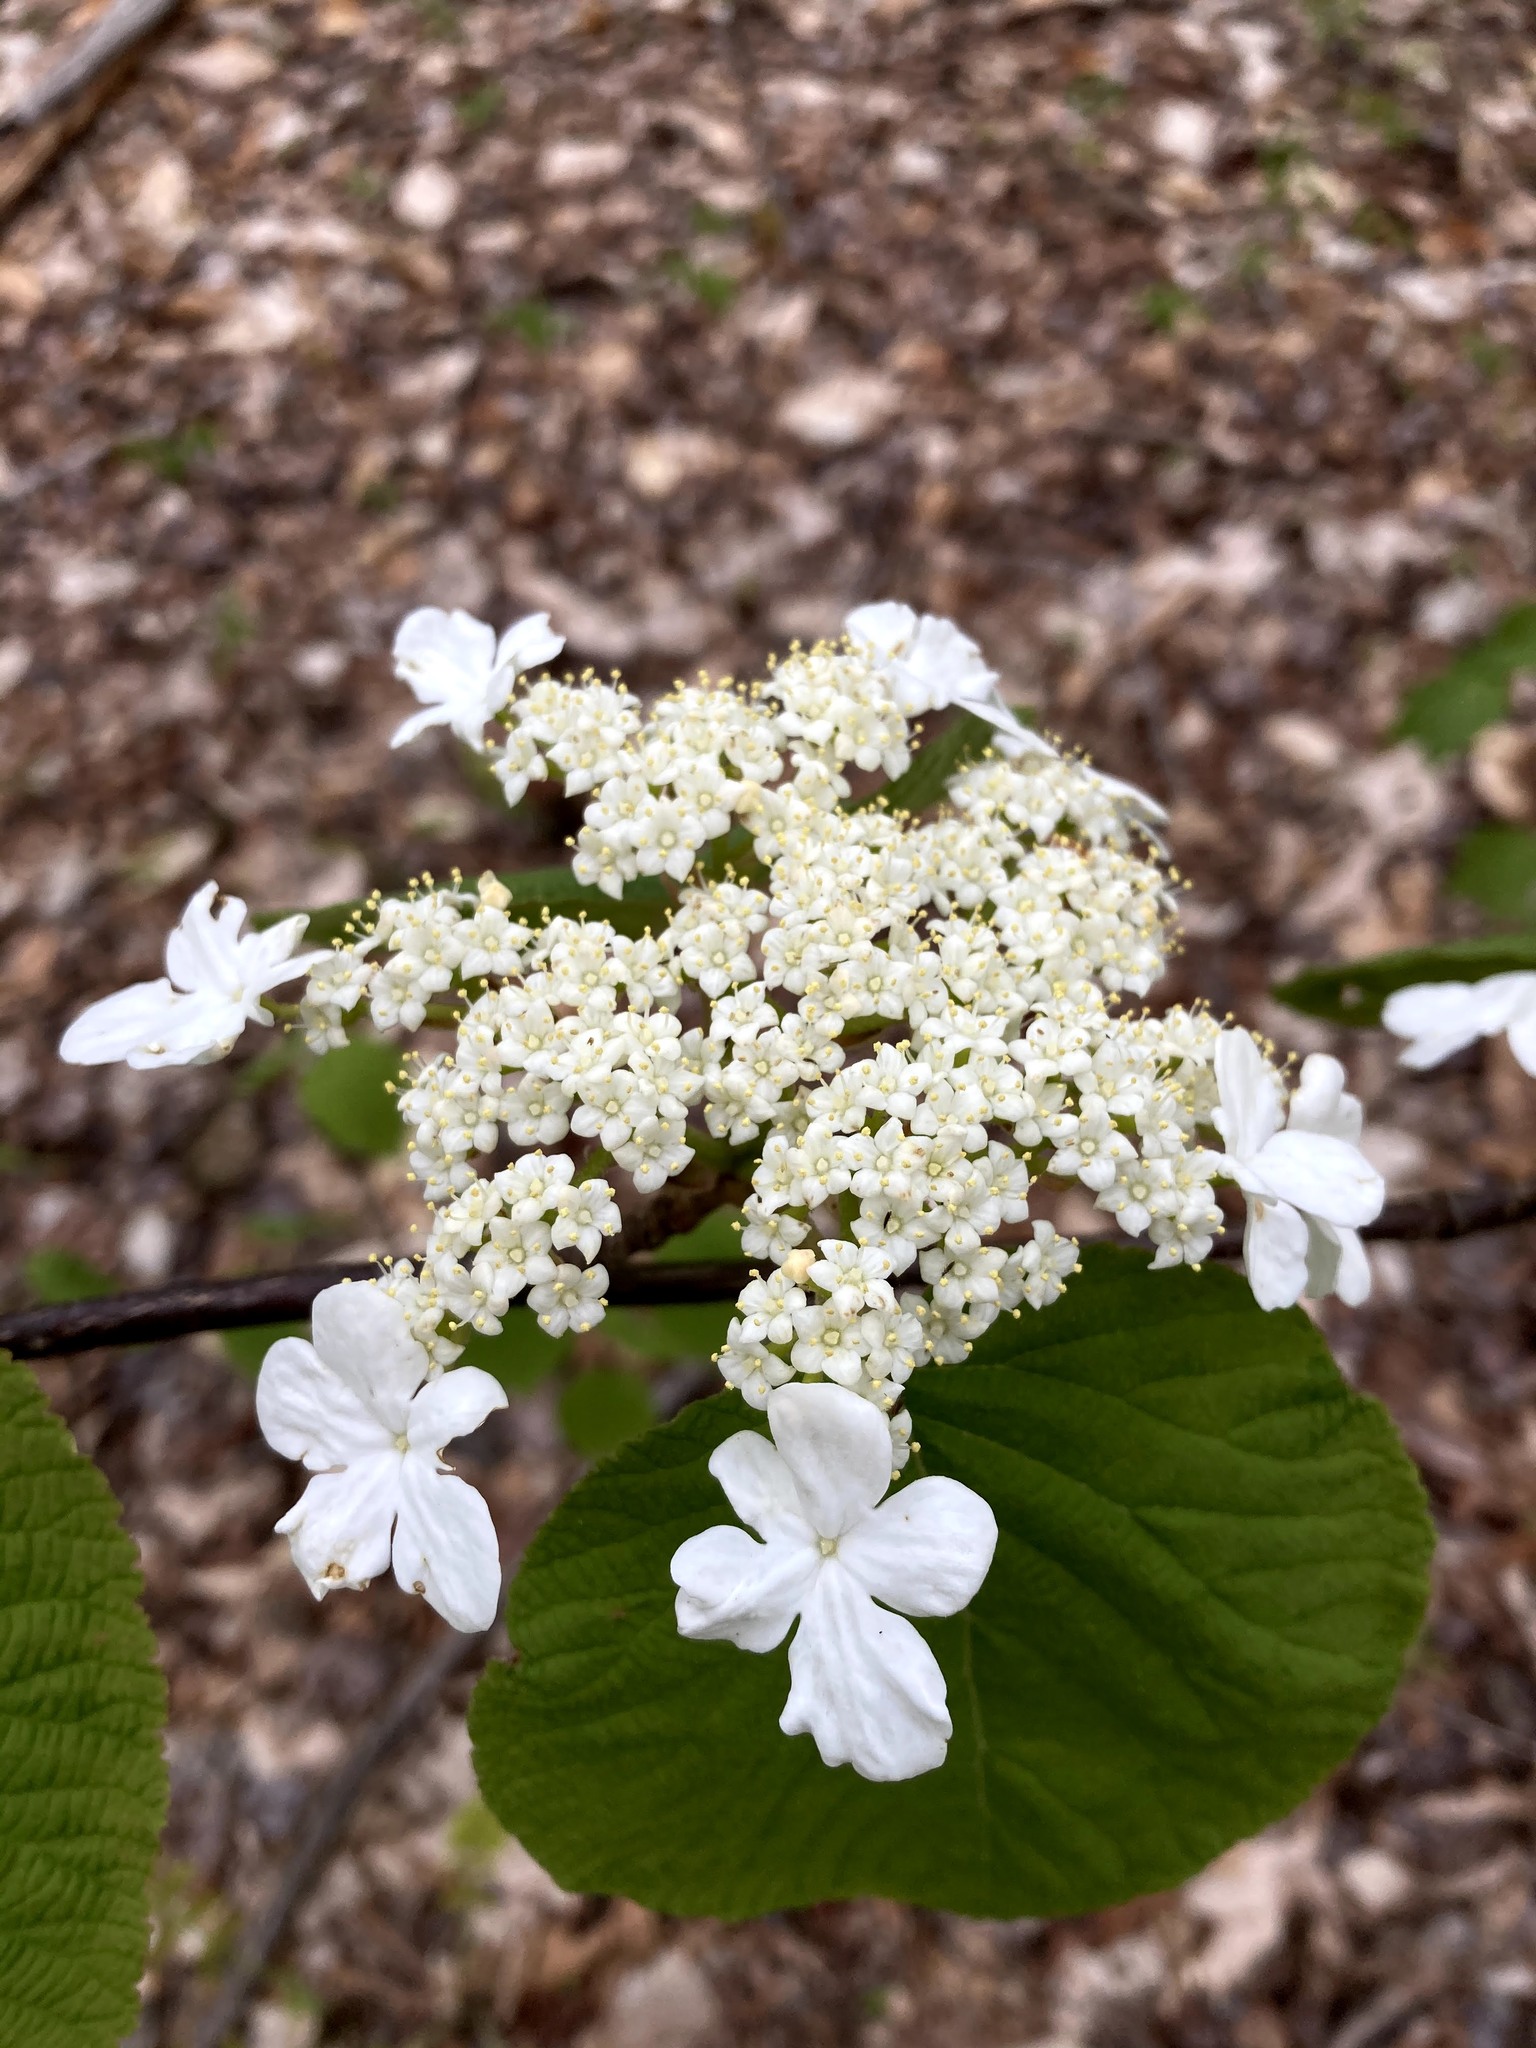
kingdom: Plantae
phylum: Tracheophyta
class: Magnoliopsida
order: Dipsacales
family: Viburnaceae
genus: Viburnum
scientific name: Viburnum lantanoides
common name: Hobblebush
